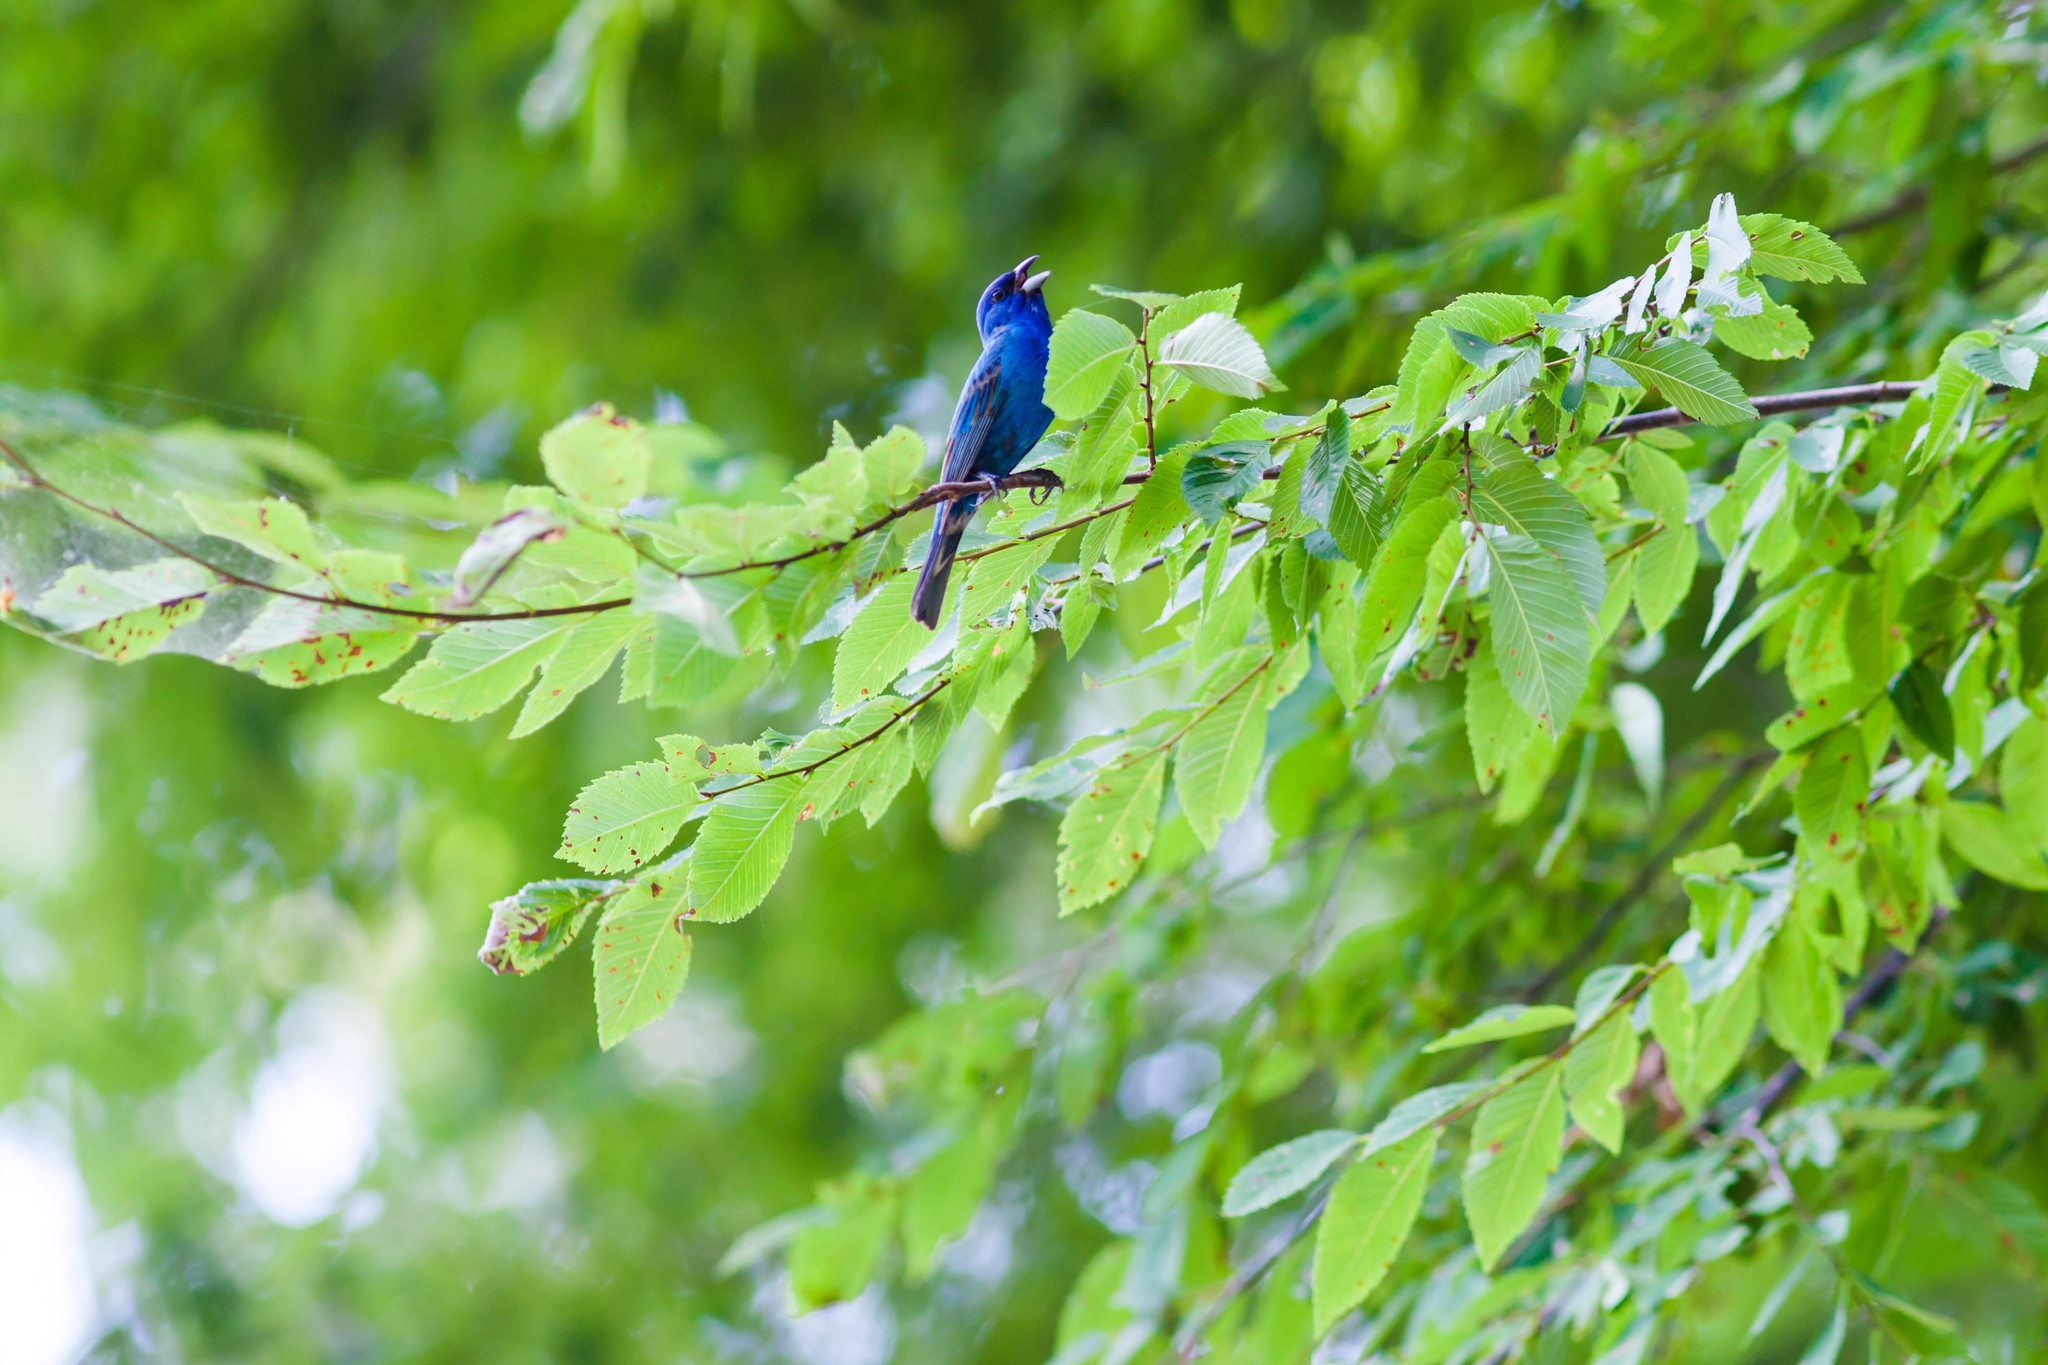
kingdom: Animalia
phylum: Chordata
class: Aves
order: Passeriformes
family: Cardinalidae
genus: Passerina
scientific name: Passerina cyanea
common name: Indigo bunting
